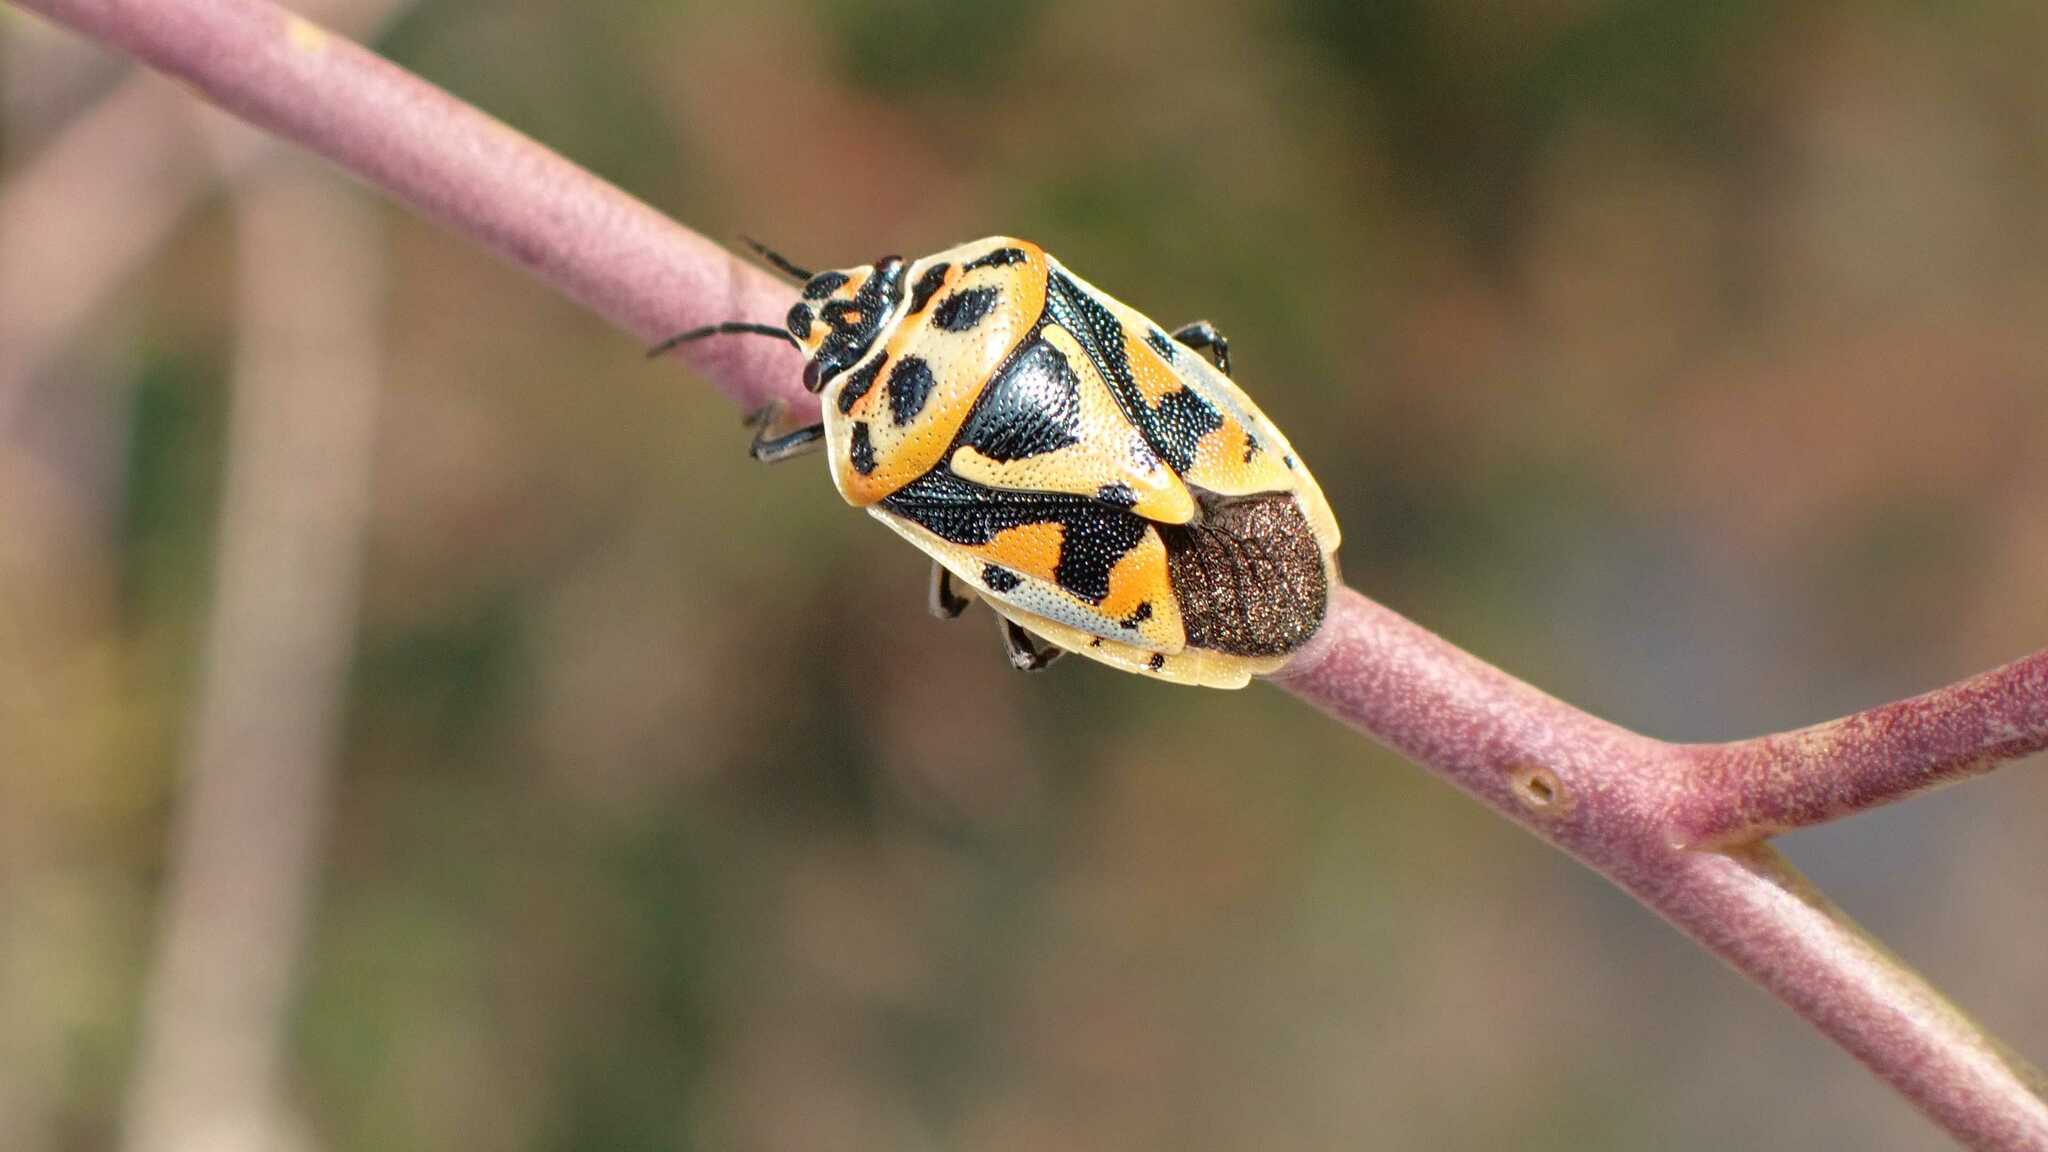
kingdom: Animalia
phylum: Arthropoda
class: Insecta
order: Hemiptera
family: Pentatomidae
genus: Eurydema
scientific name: Eurydema ornata
